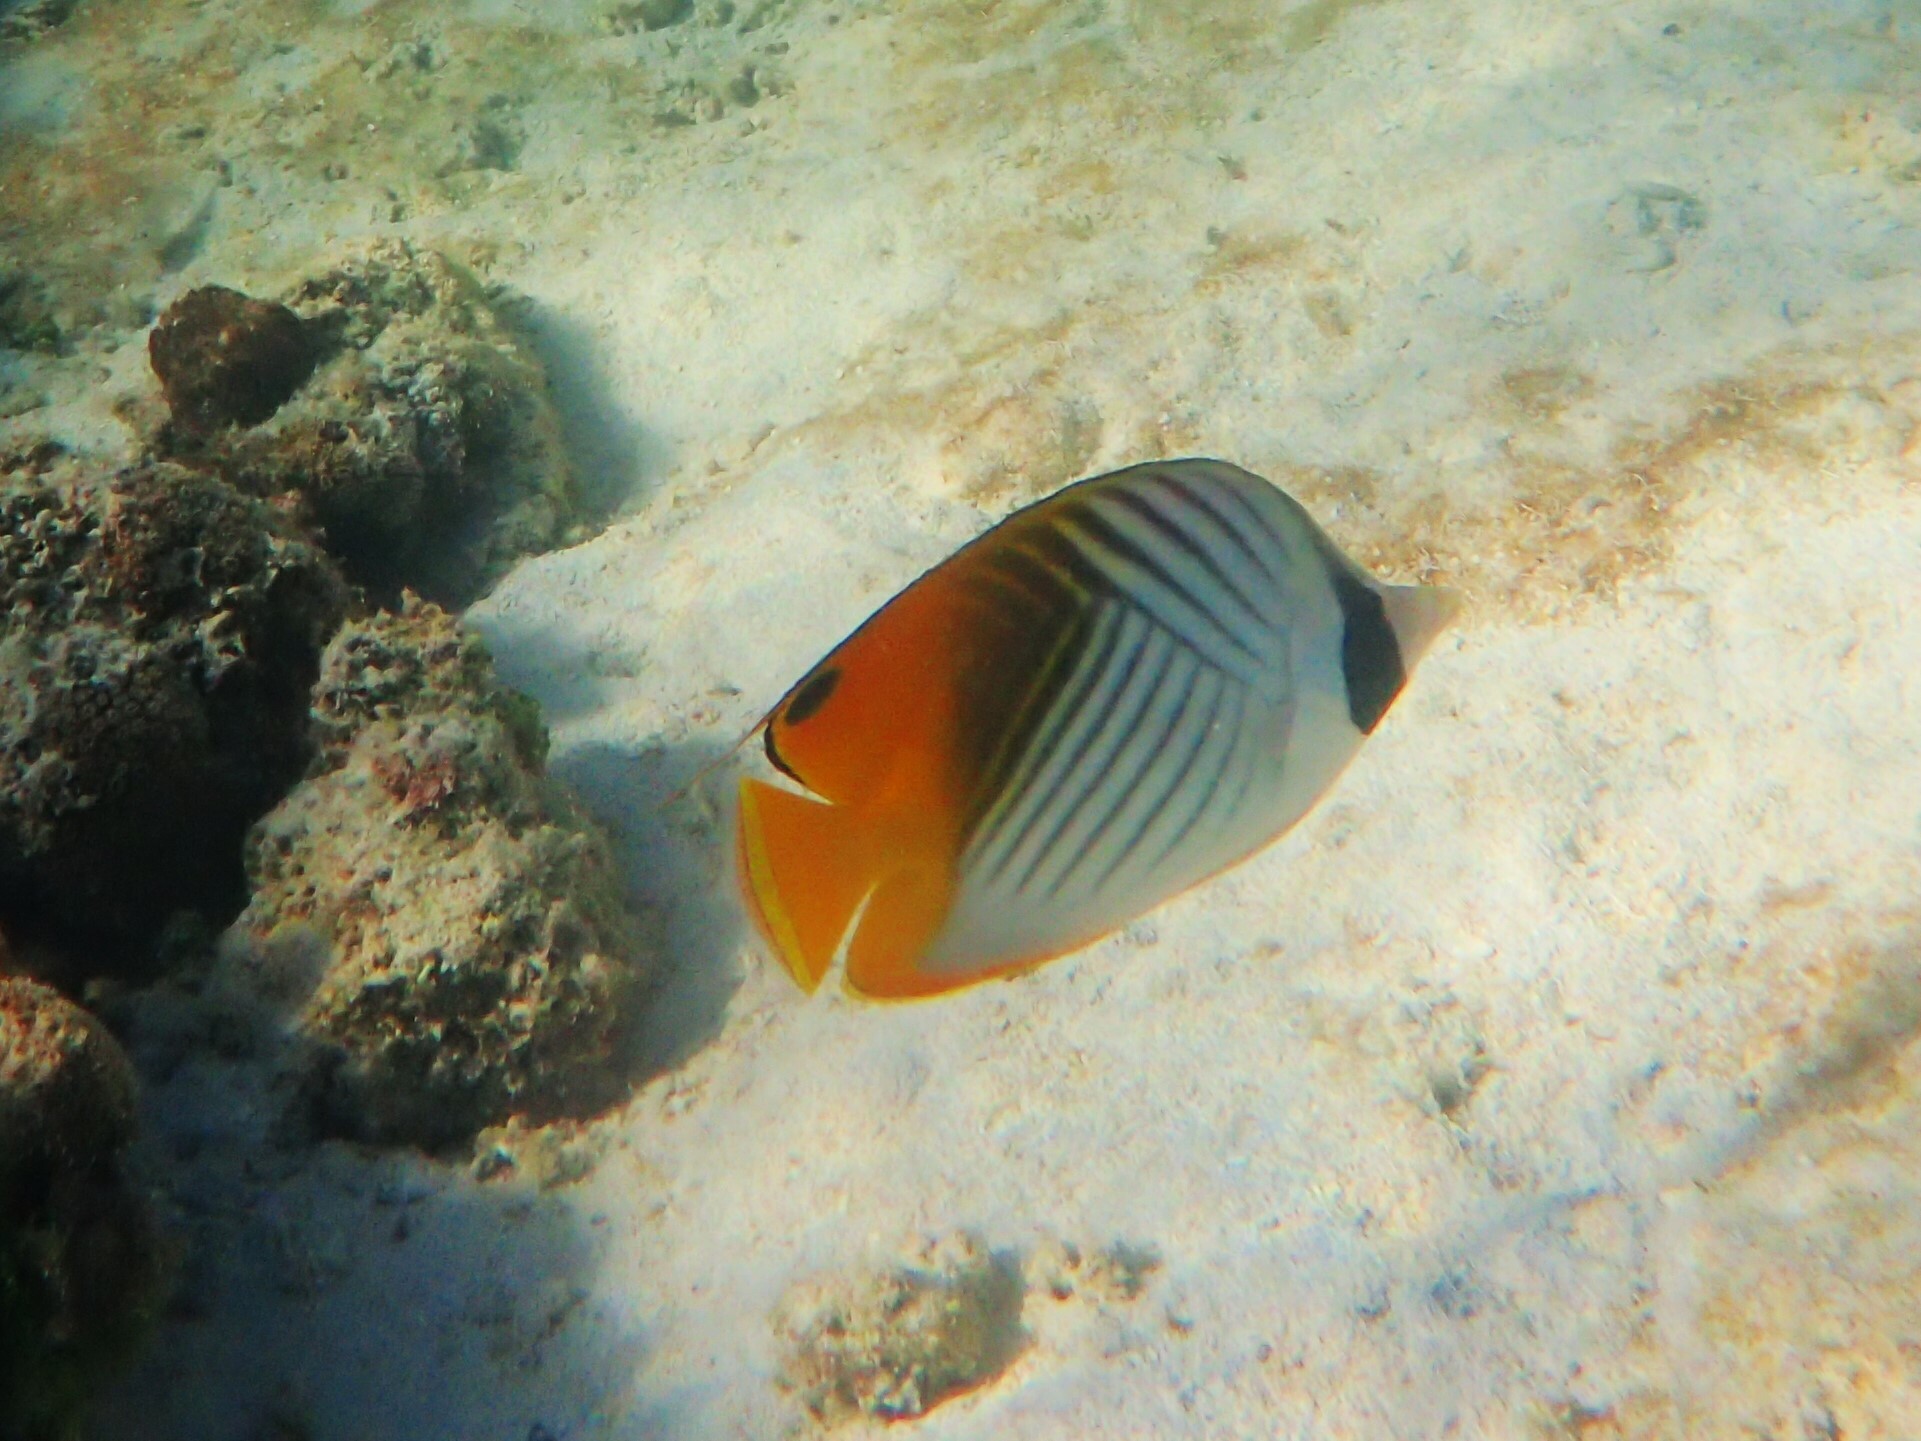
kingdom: Animalia
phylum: Chordata
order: Perciformes
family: Chaetodontidae
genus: Chaetodon
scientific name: Chaetodon auriga
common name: Threadfin butterflyfish
